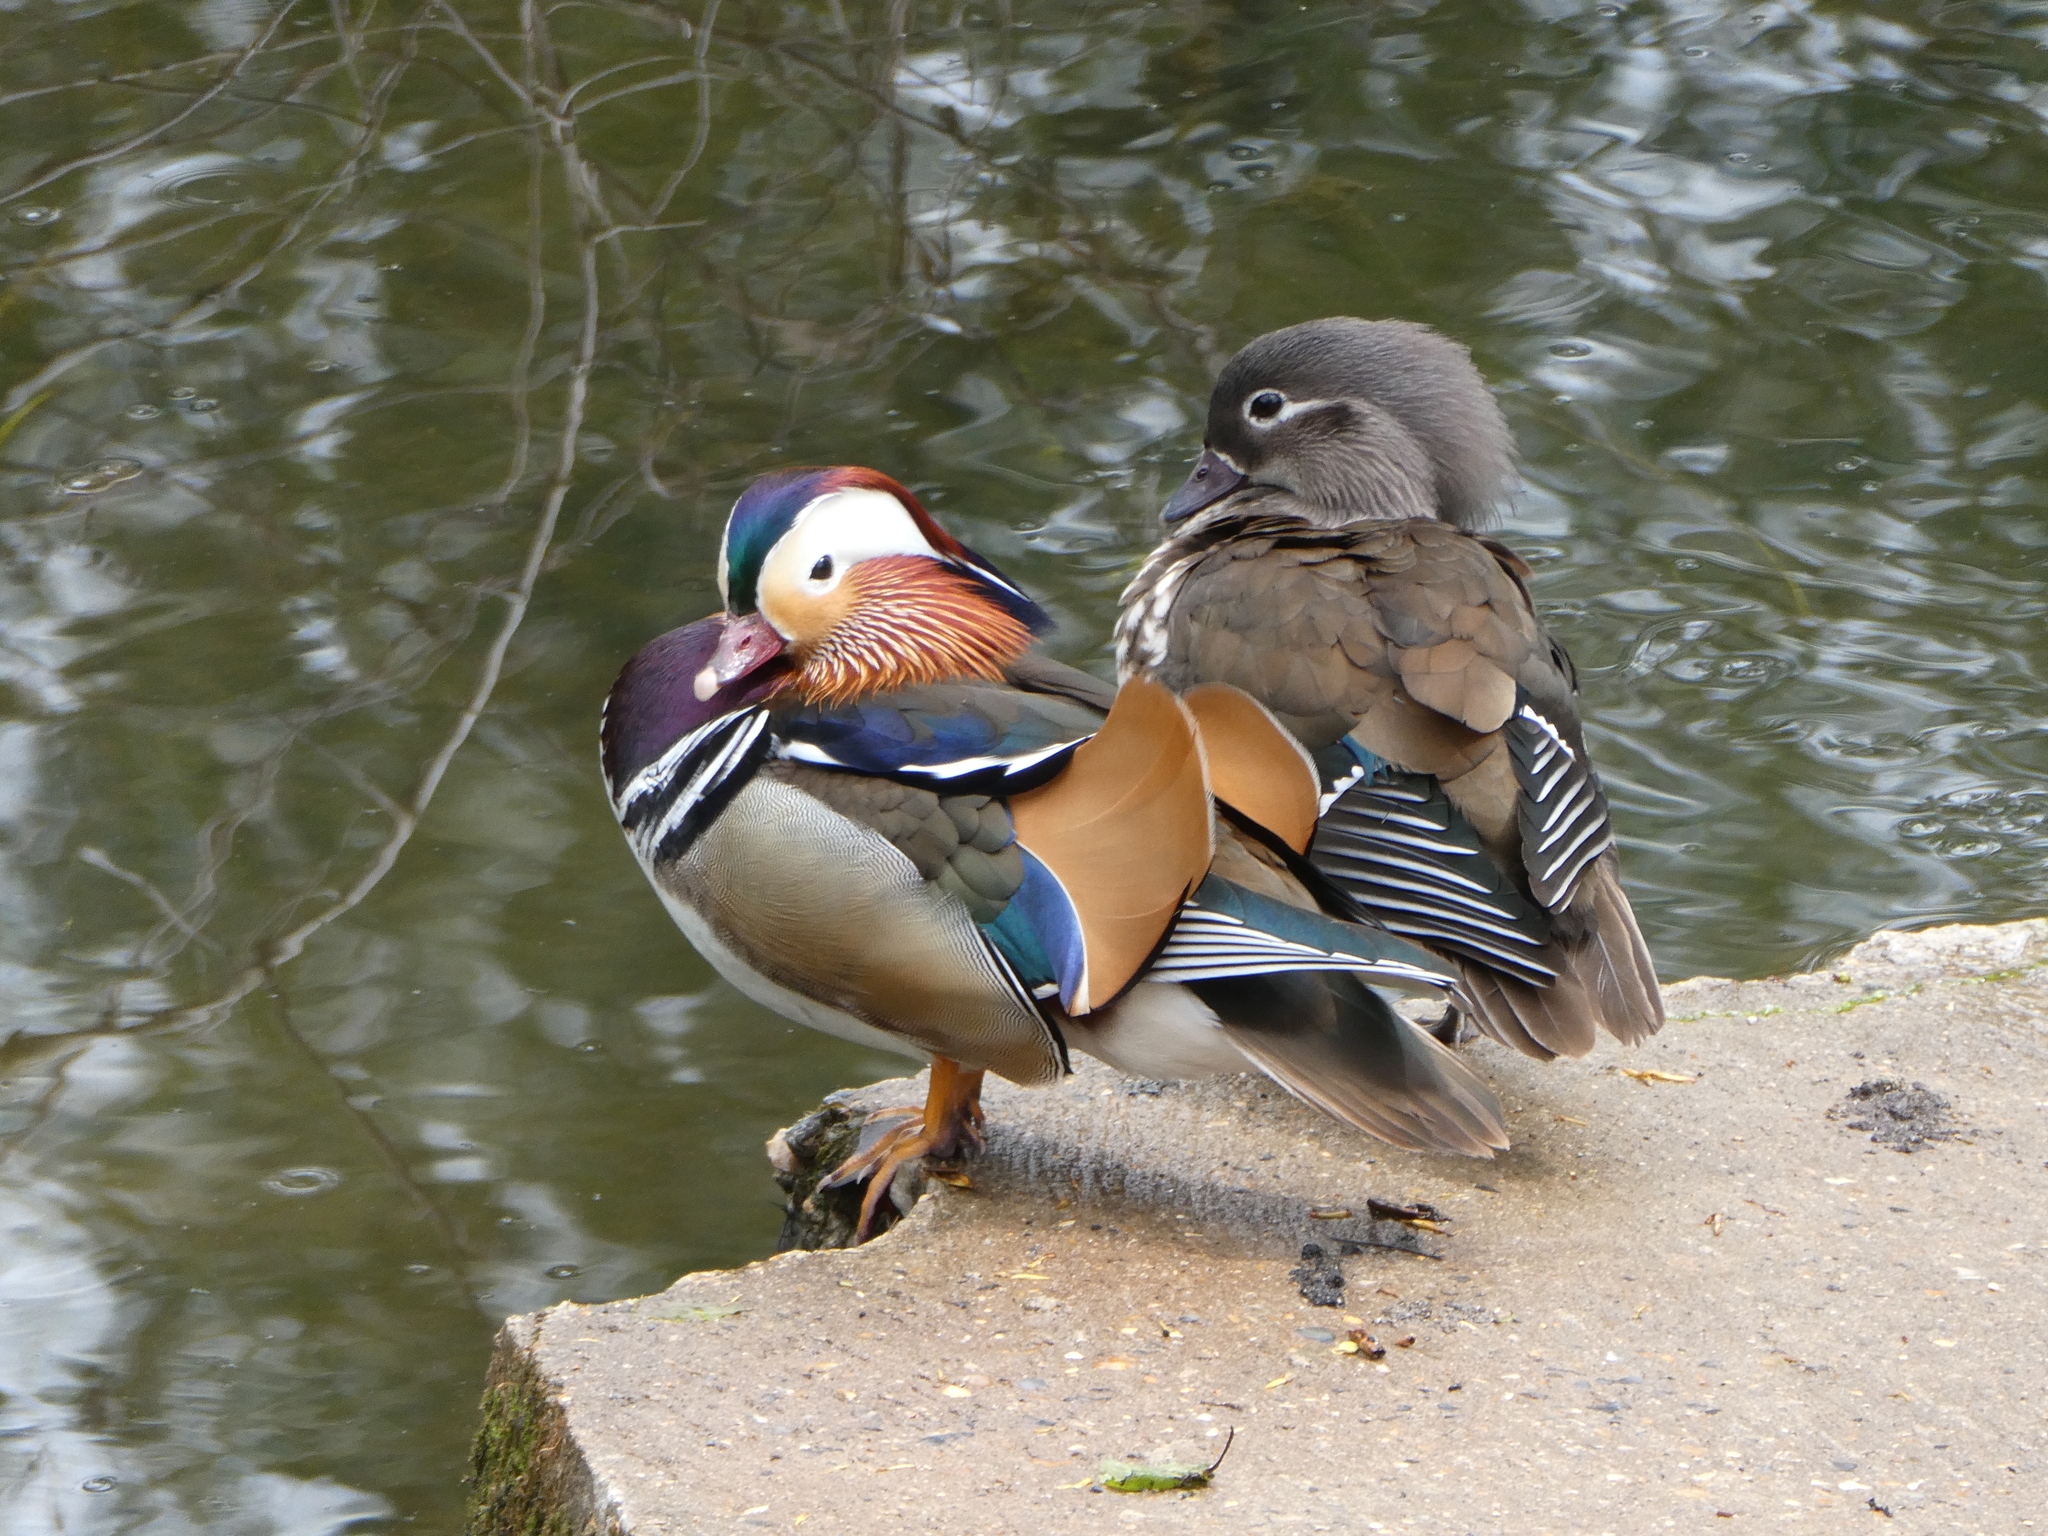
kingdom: Animalia
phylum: Chordata
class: Aves
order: Anseriformes
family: Anatidae
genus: Aix
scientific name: Aix galericulata
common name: Mandarin duck
